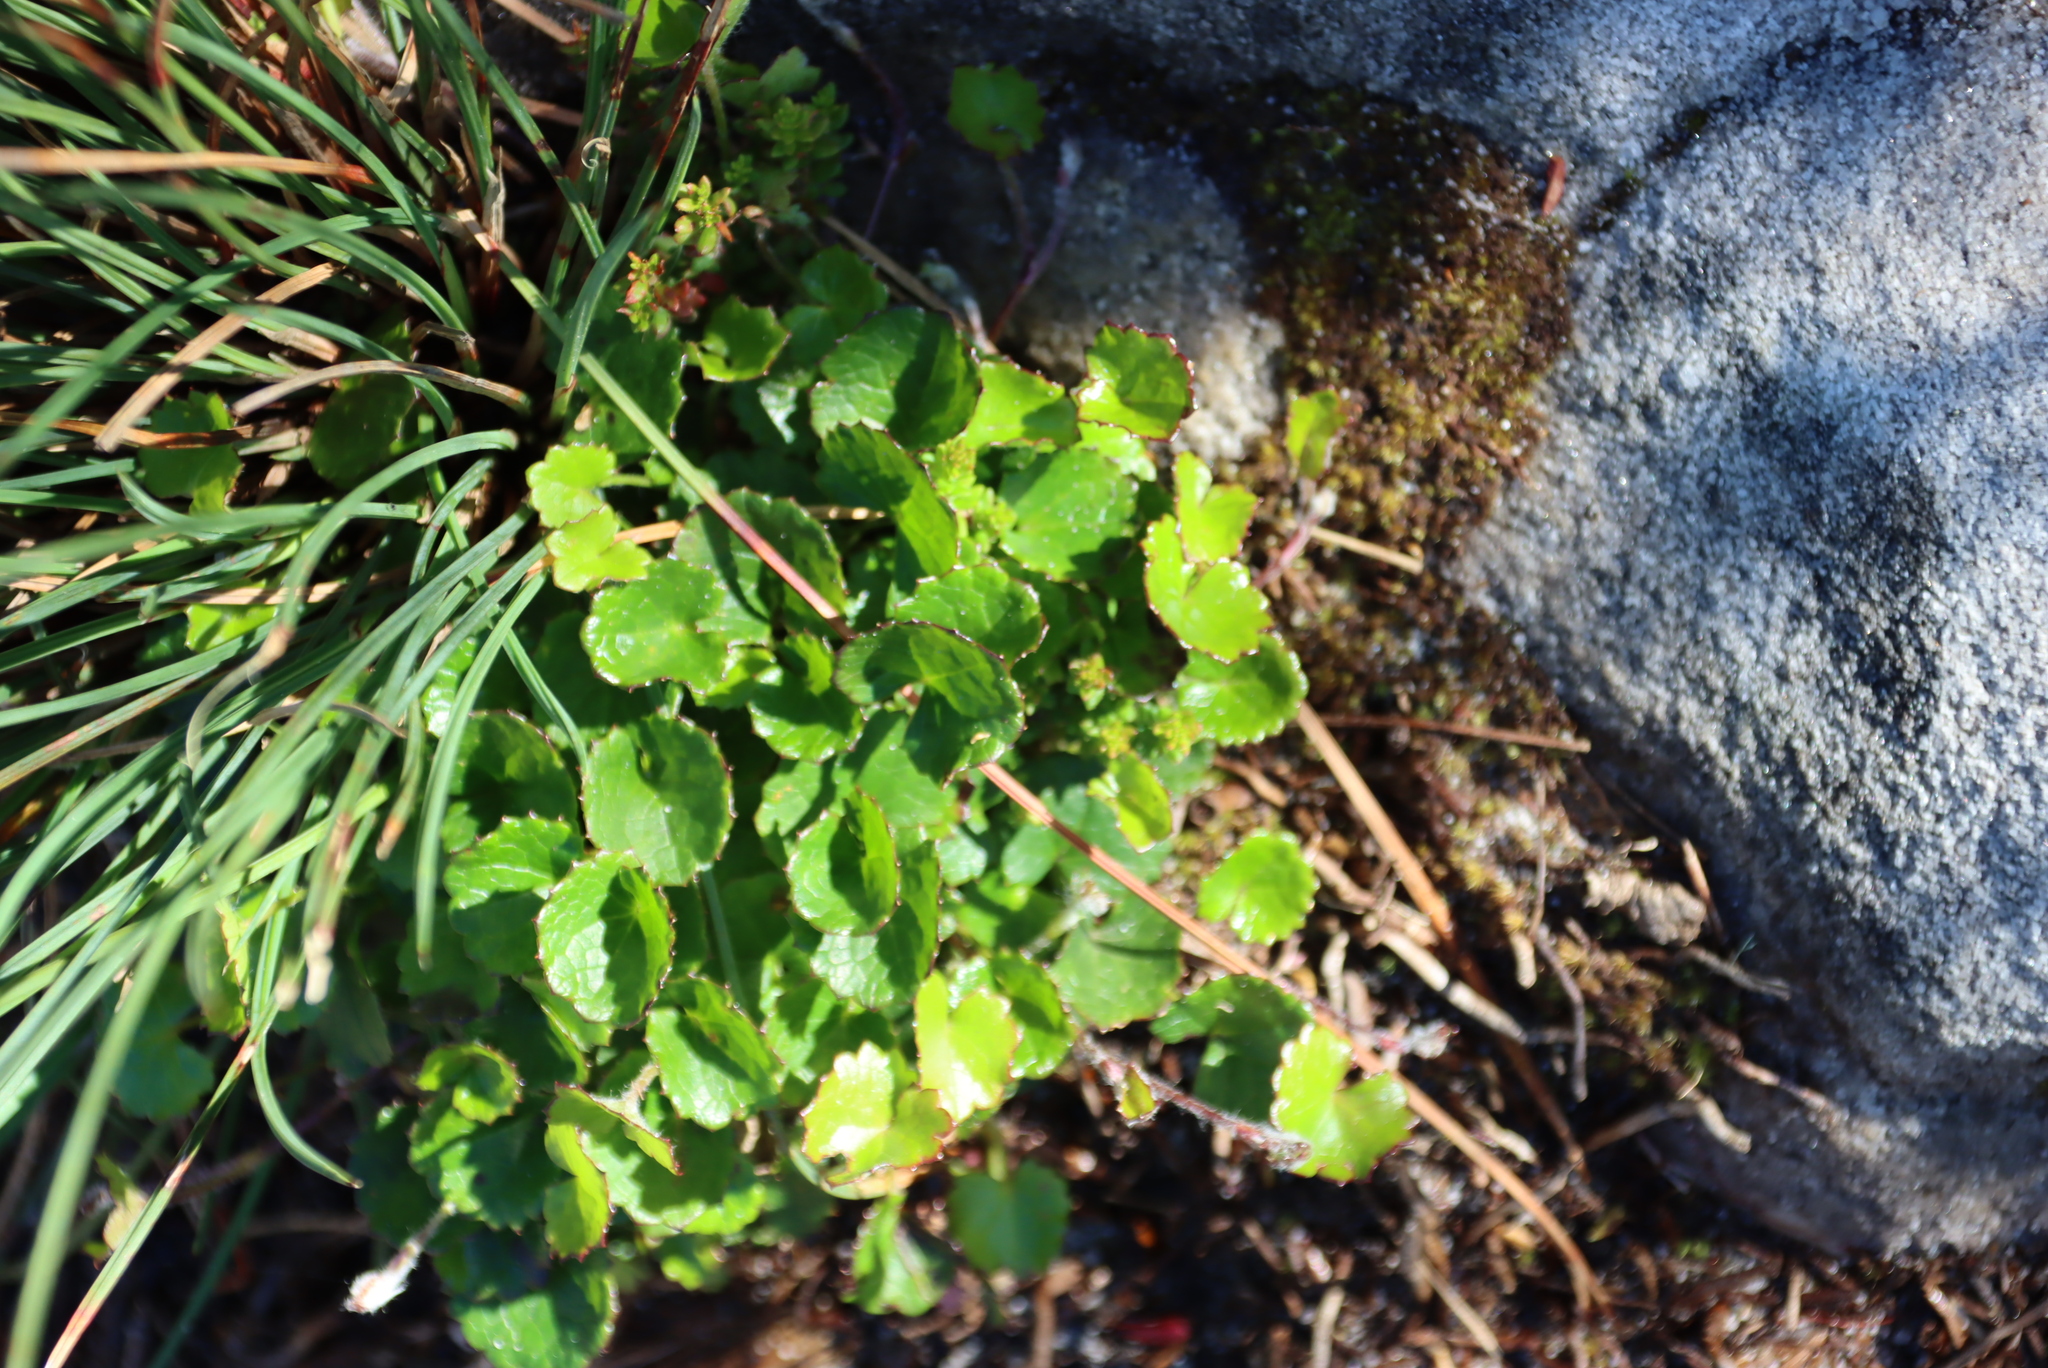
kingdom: Plantae
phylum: Tracheophyta
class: Magnoliopsida
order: Apiales
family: Apiaceae
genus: Centella
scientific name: Centella eriantha
